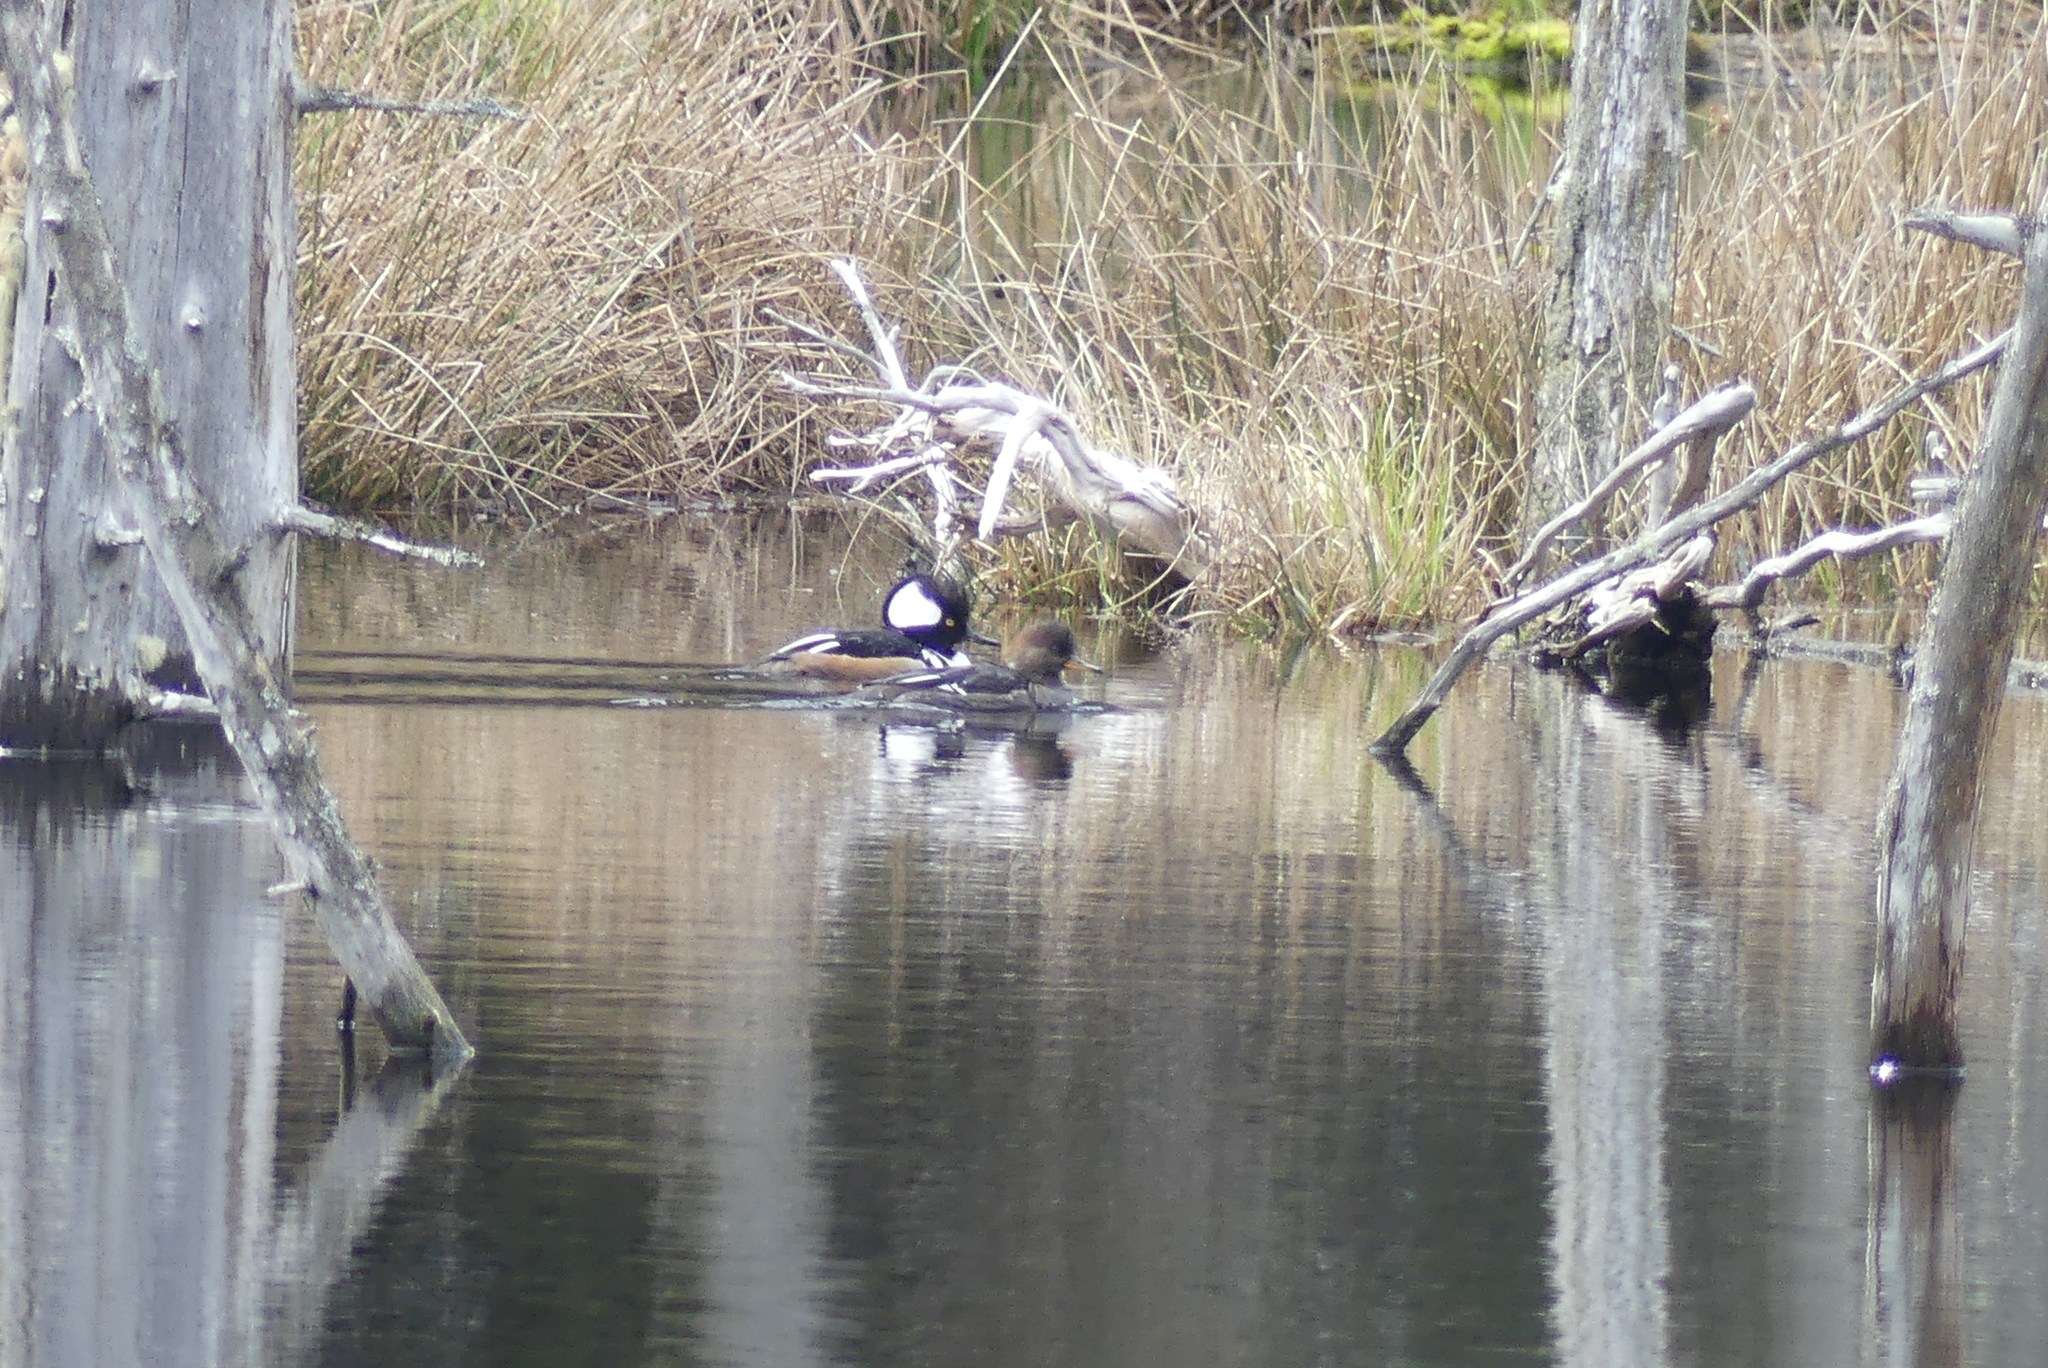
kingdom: Animalia
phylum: Chordata
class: Aves
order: Anseriformes
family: Anatidae
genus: Lophodytes
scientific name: Lophodytes cucullatus
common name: Hooded merganser
